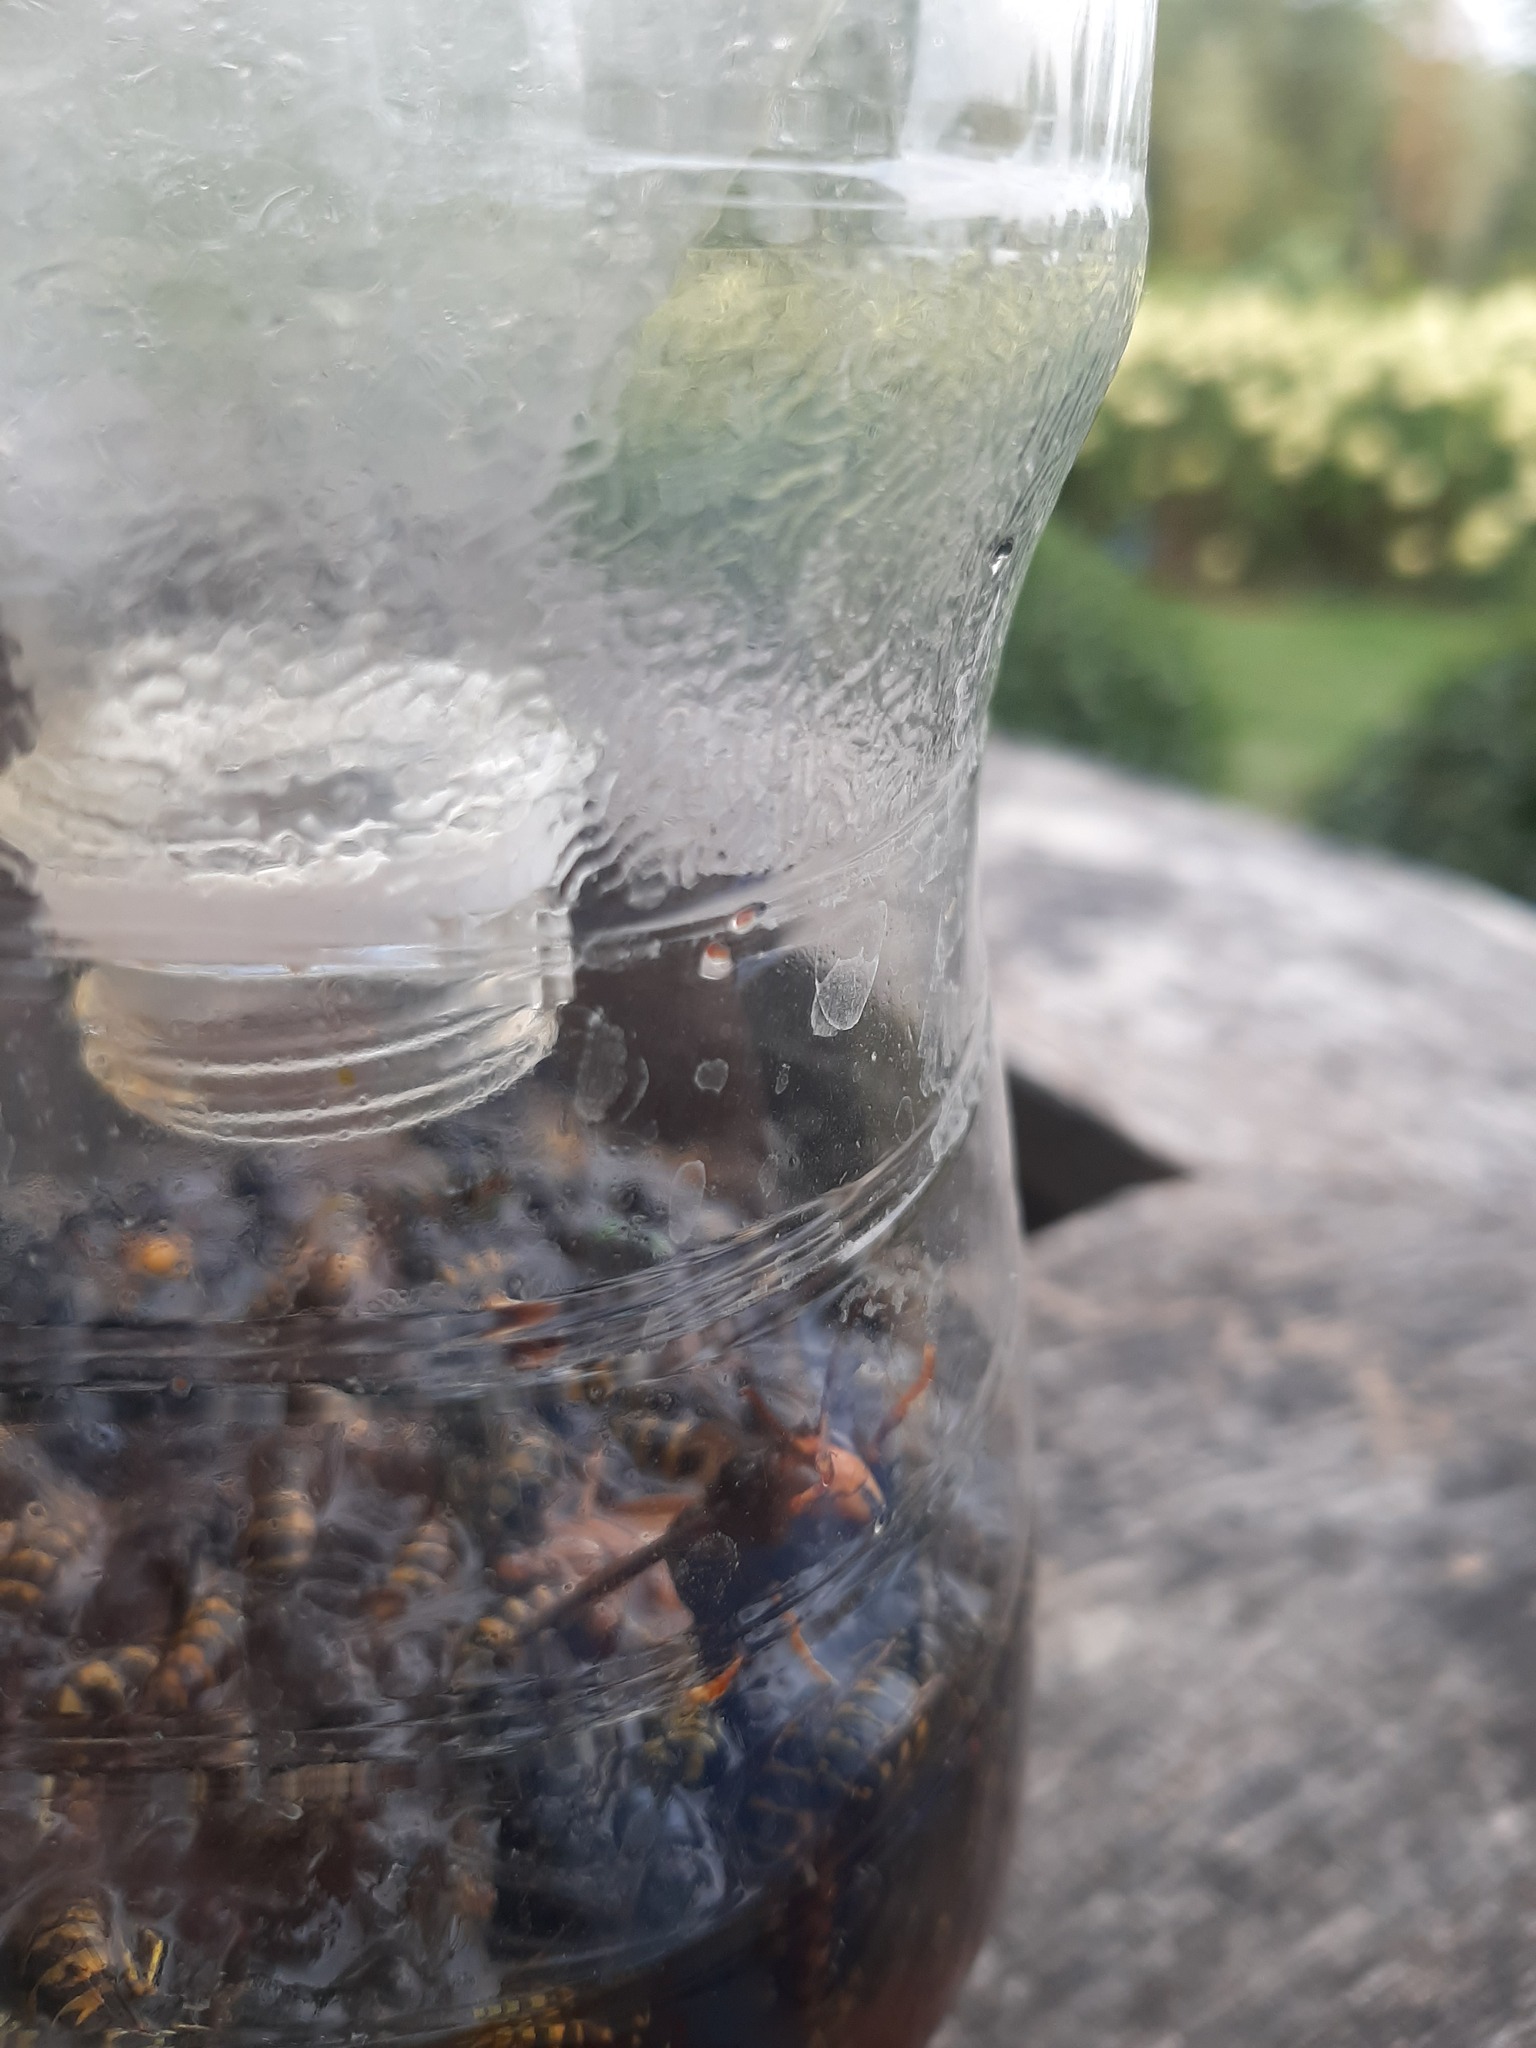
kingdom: Animalia
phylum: Arthropoda
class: Insecta
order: Hymenoptera
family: Vespidae
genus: Vespa
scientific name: Vespa velutina
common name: Asian hornet
